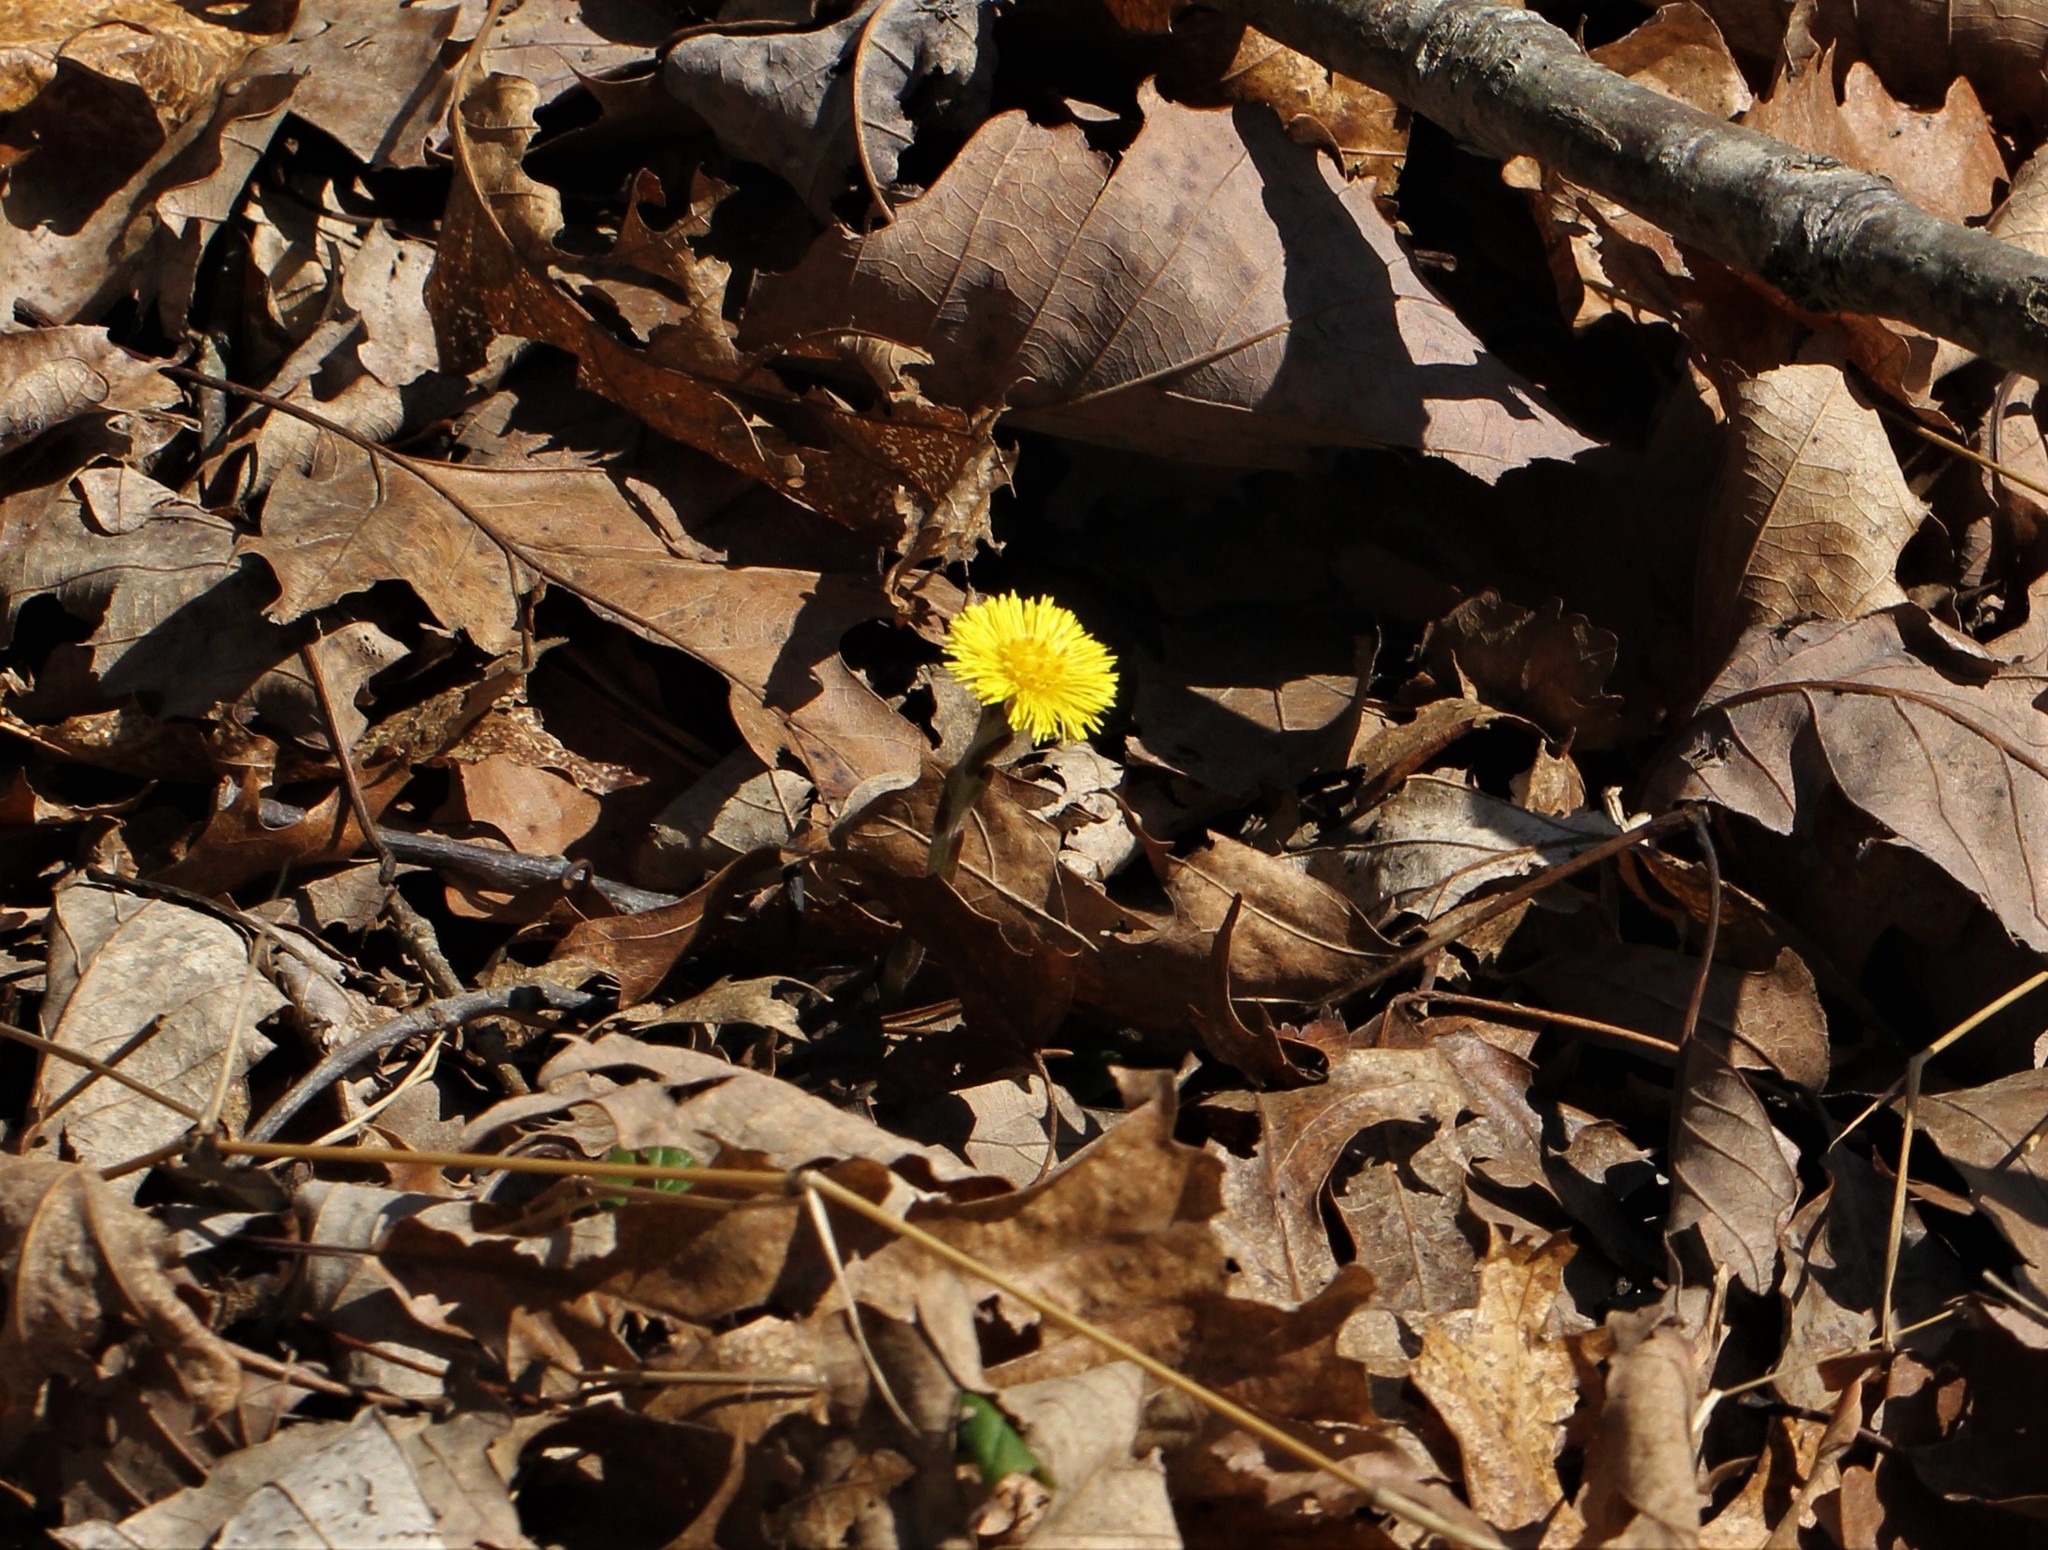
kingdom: Plantae
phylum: Tracheophyta
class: Magnoliopsida
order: Asterales
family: Asteraceae
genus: Tussilago
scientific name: Tussilago farfara
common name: Coltsfoot
